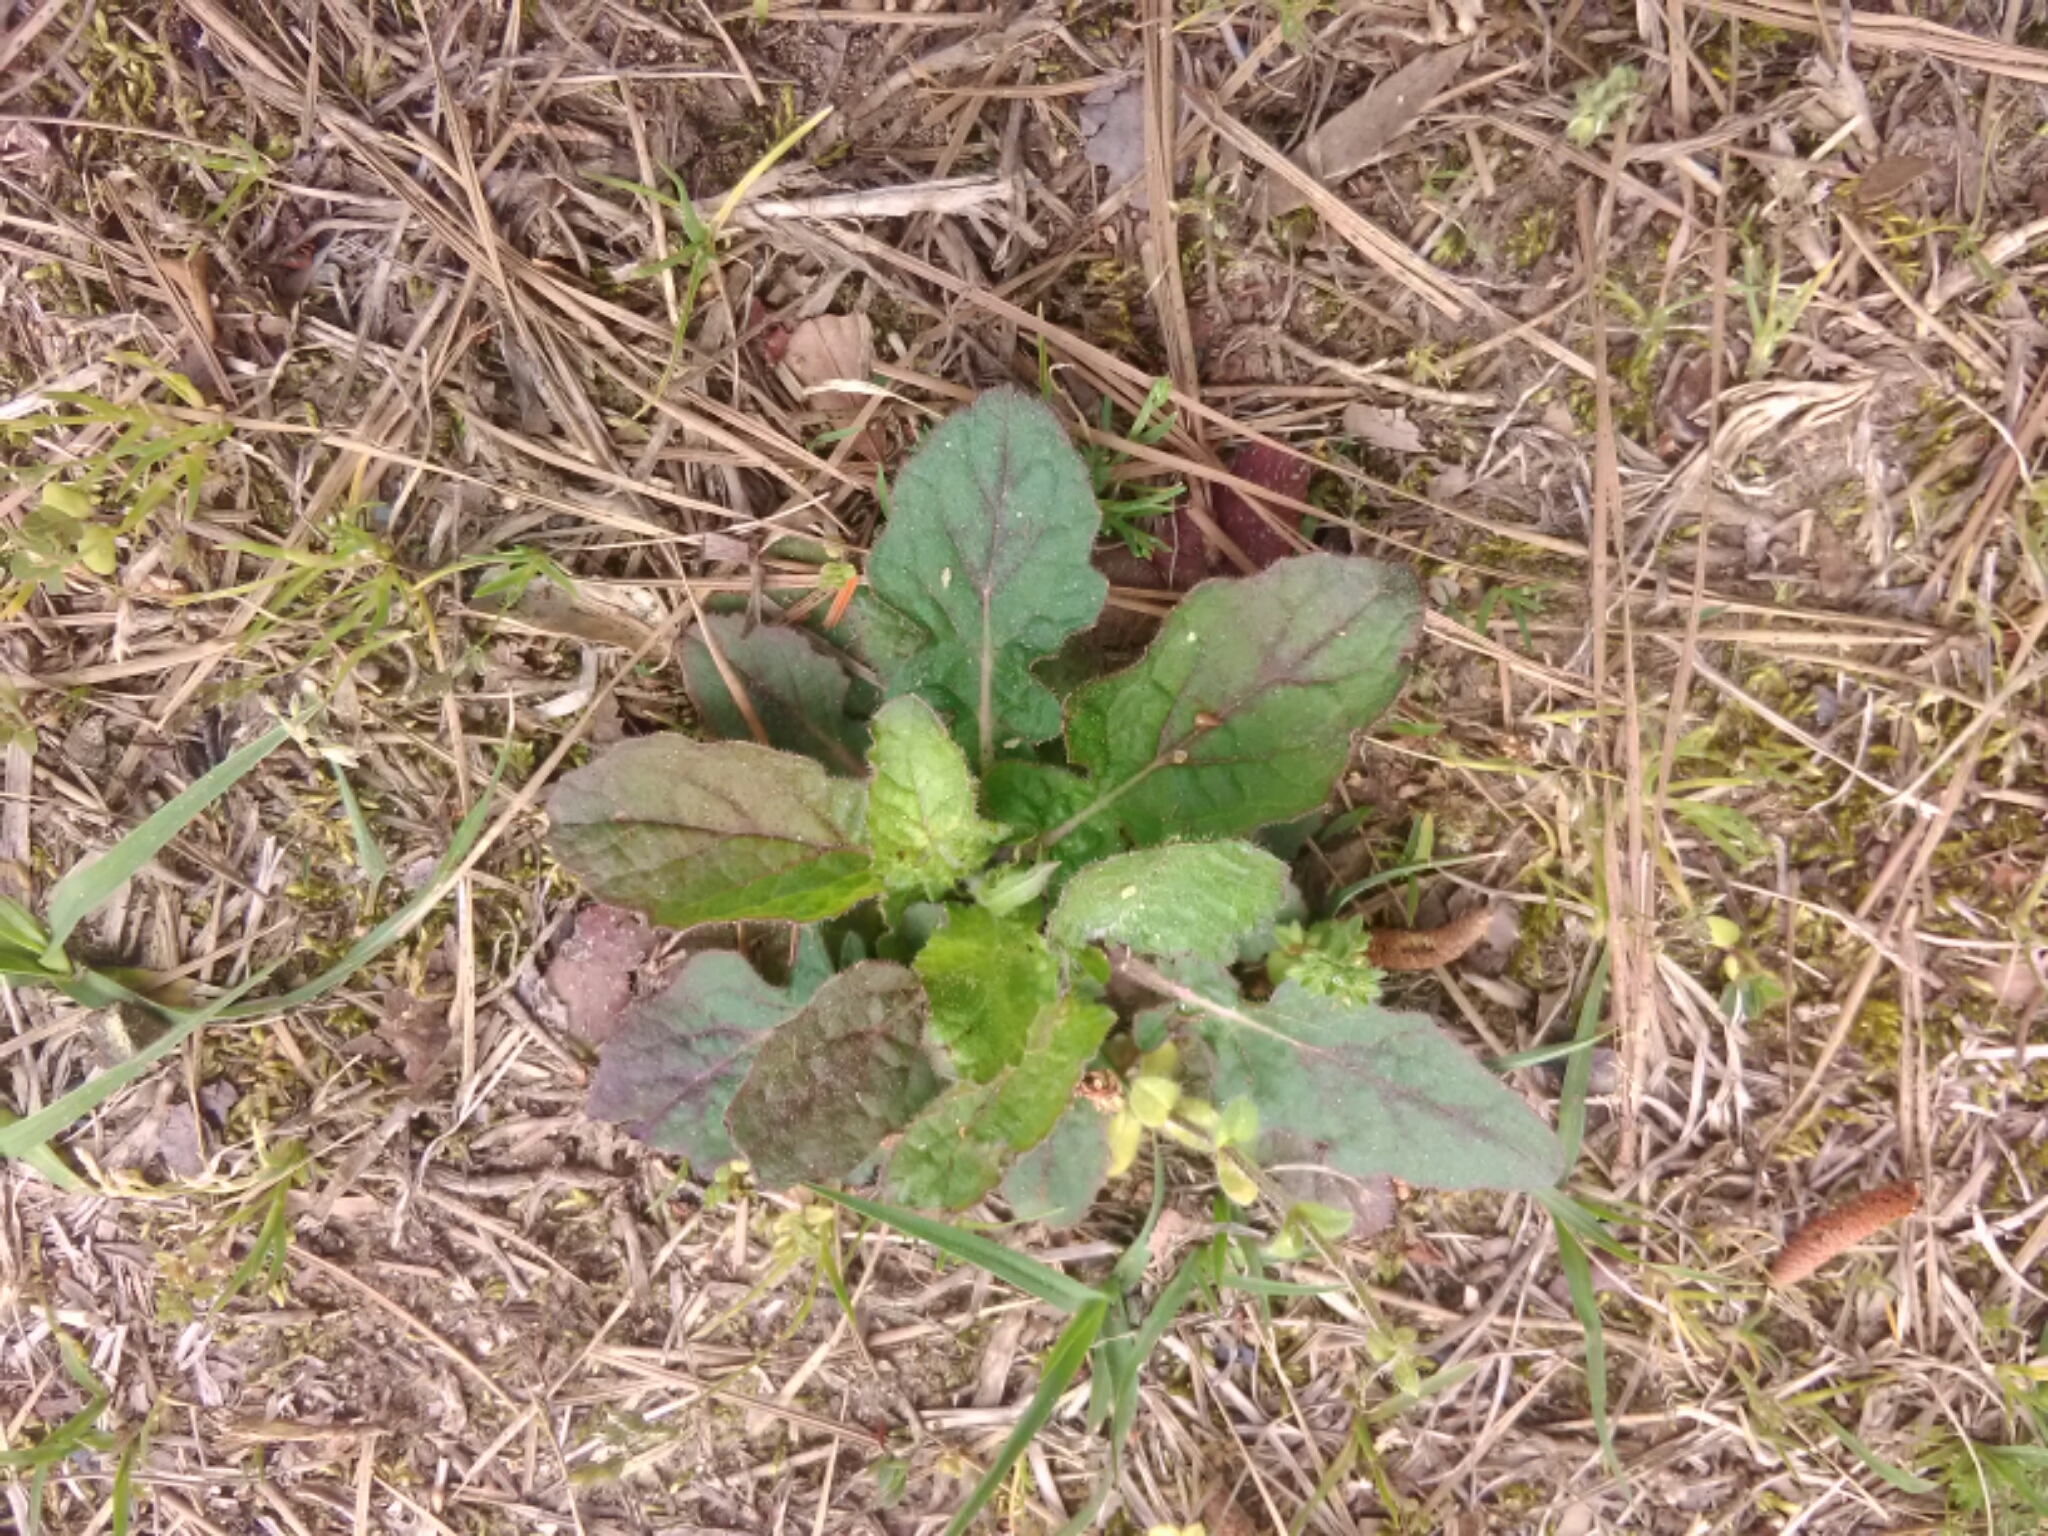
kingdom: Plantae
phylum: Tracheophyta
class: Magnoliopsida
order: Lamiales
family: Lamiaceae
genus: Salvia
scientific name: Salvia lyrata
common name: Cancerweed
